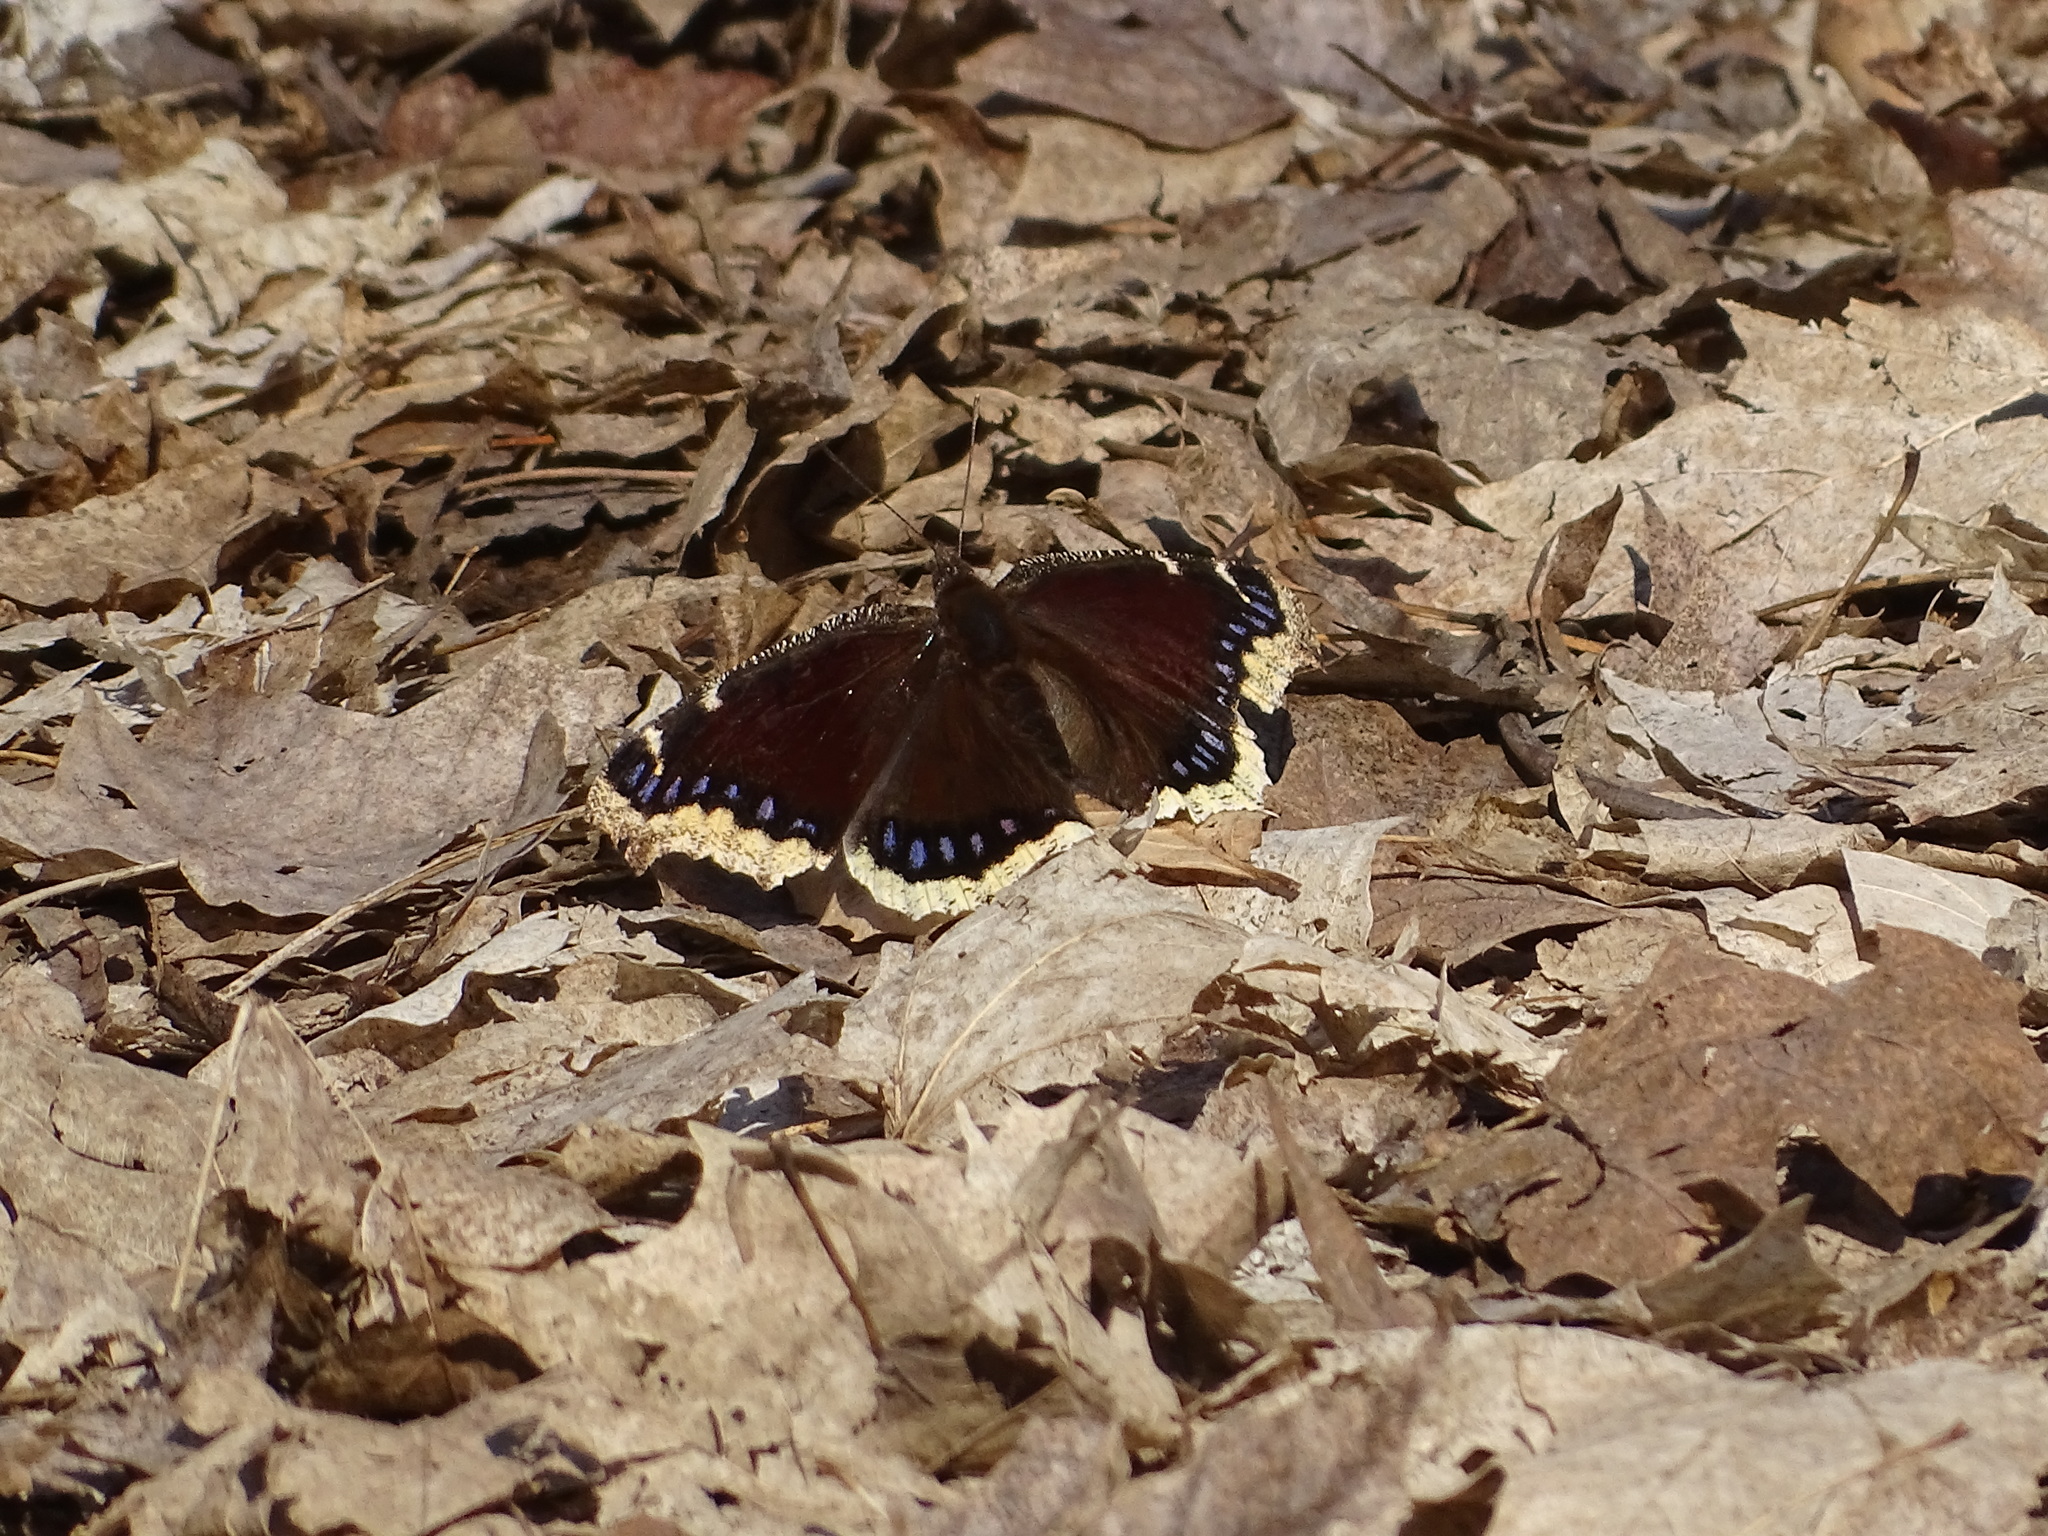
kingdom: Animalia
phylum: Arthropoda
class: Insecta
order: Lepidoptera
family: Nymphalidae
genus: Nymphalis
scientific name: Nymphalis antiopa
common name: Camberwell beauty
